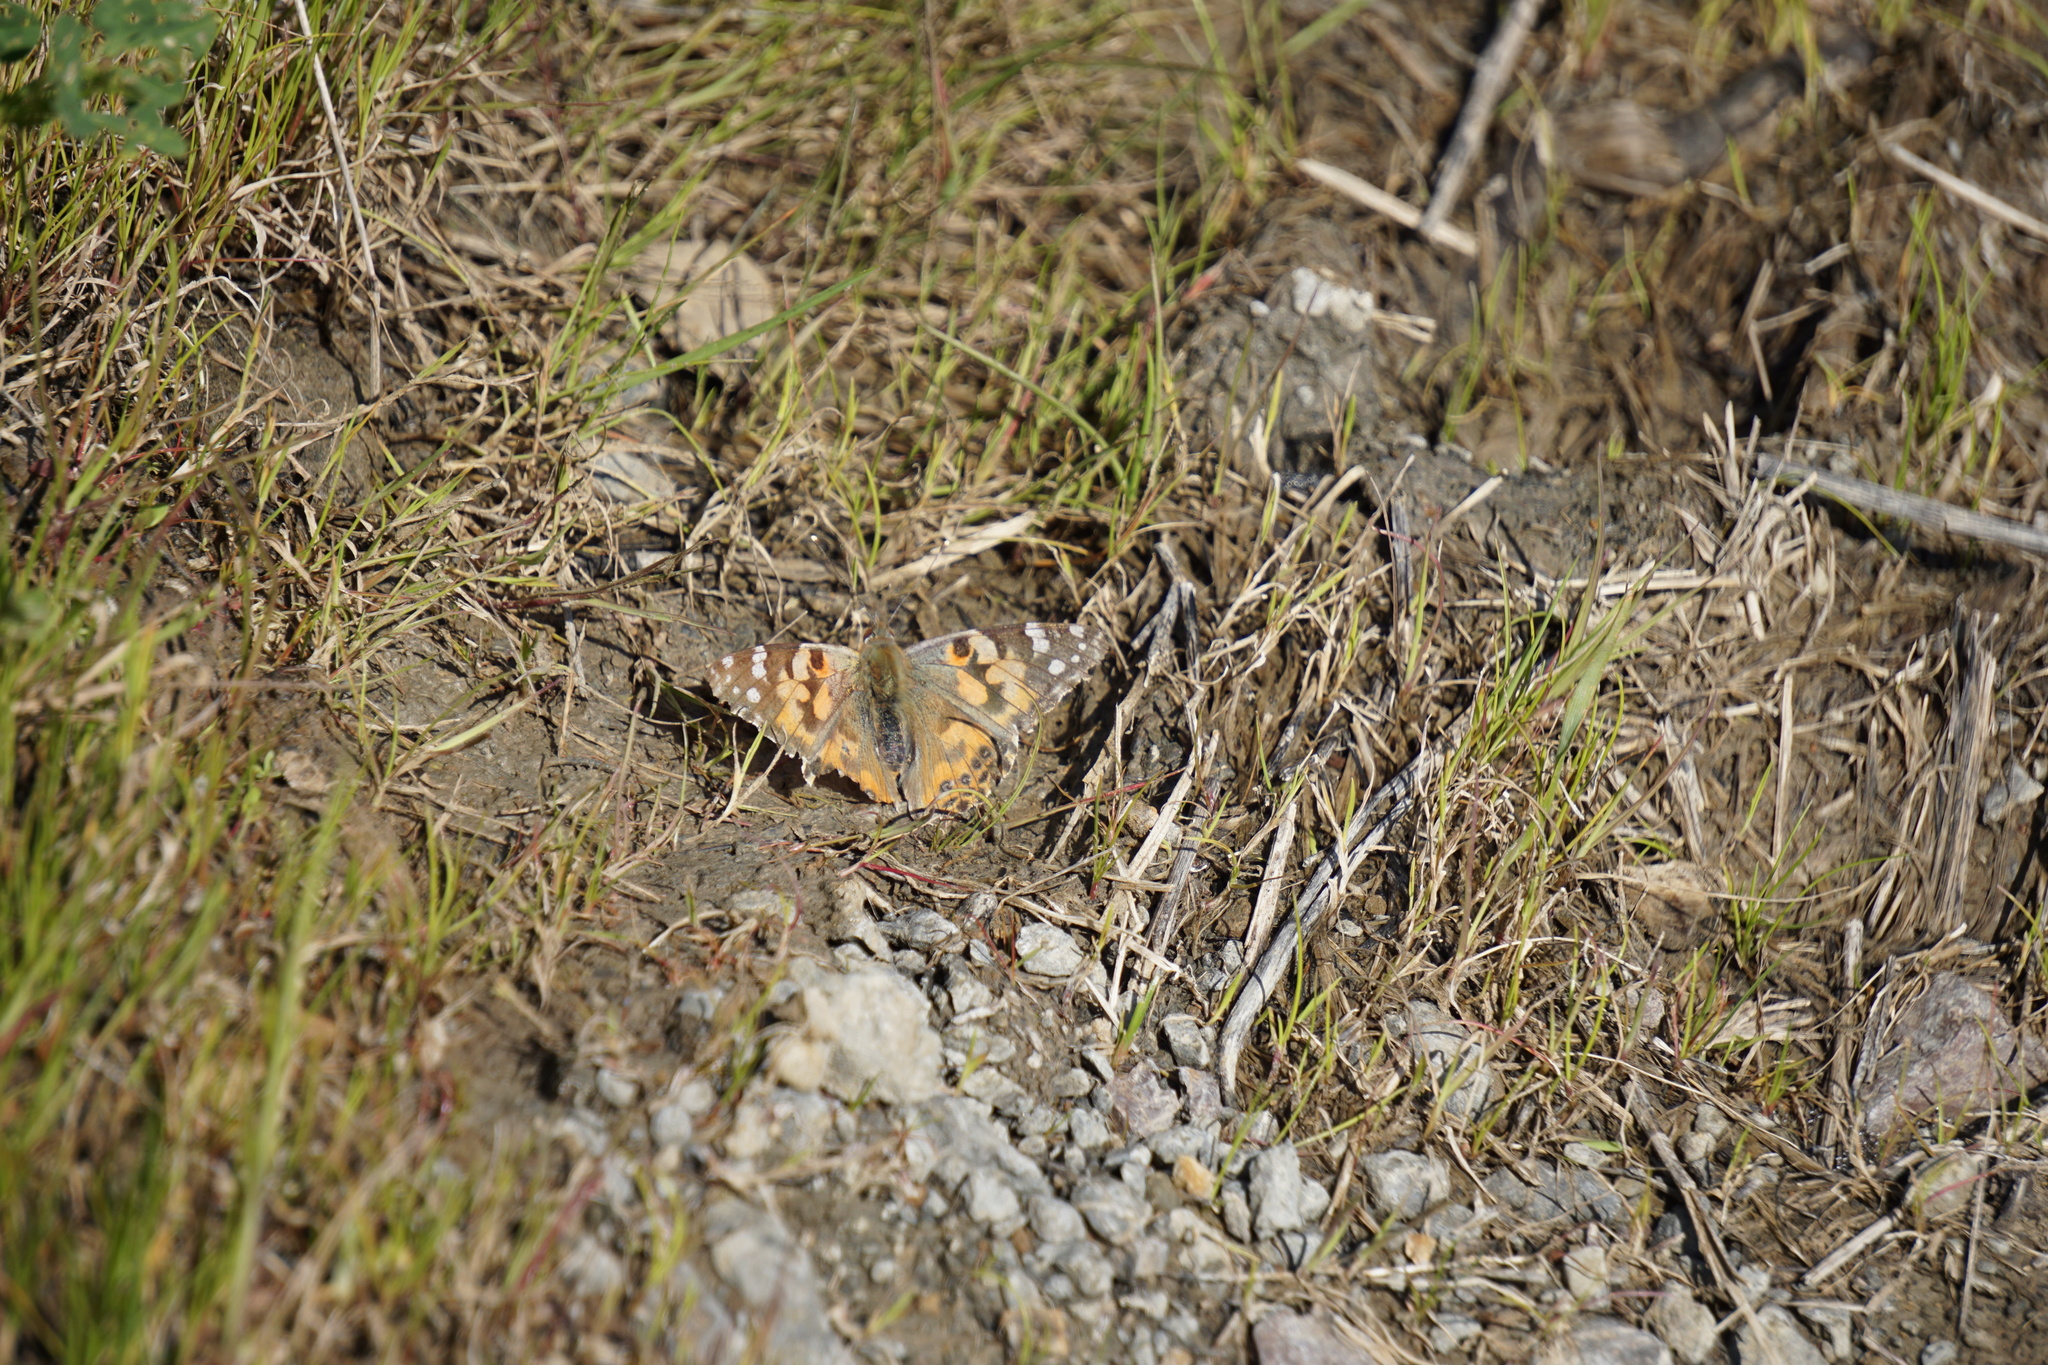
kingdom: Animalia
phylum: Arthropoda
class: Insecta
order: Lepidoptera
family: Nymphalidae
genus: Vanessa
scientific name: Vanessa annabella
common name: West coast lady
